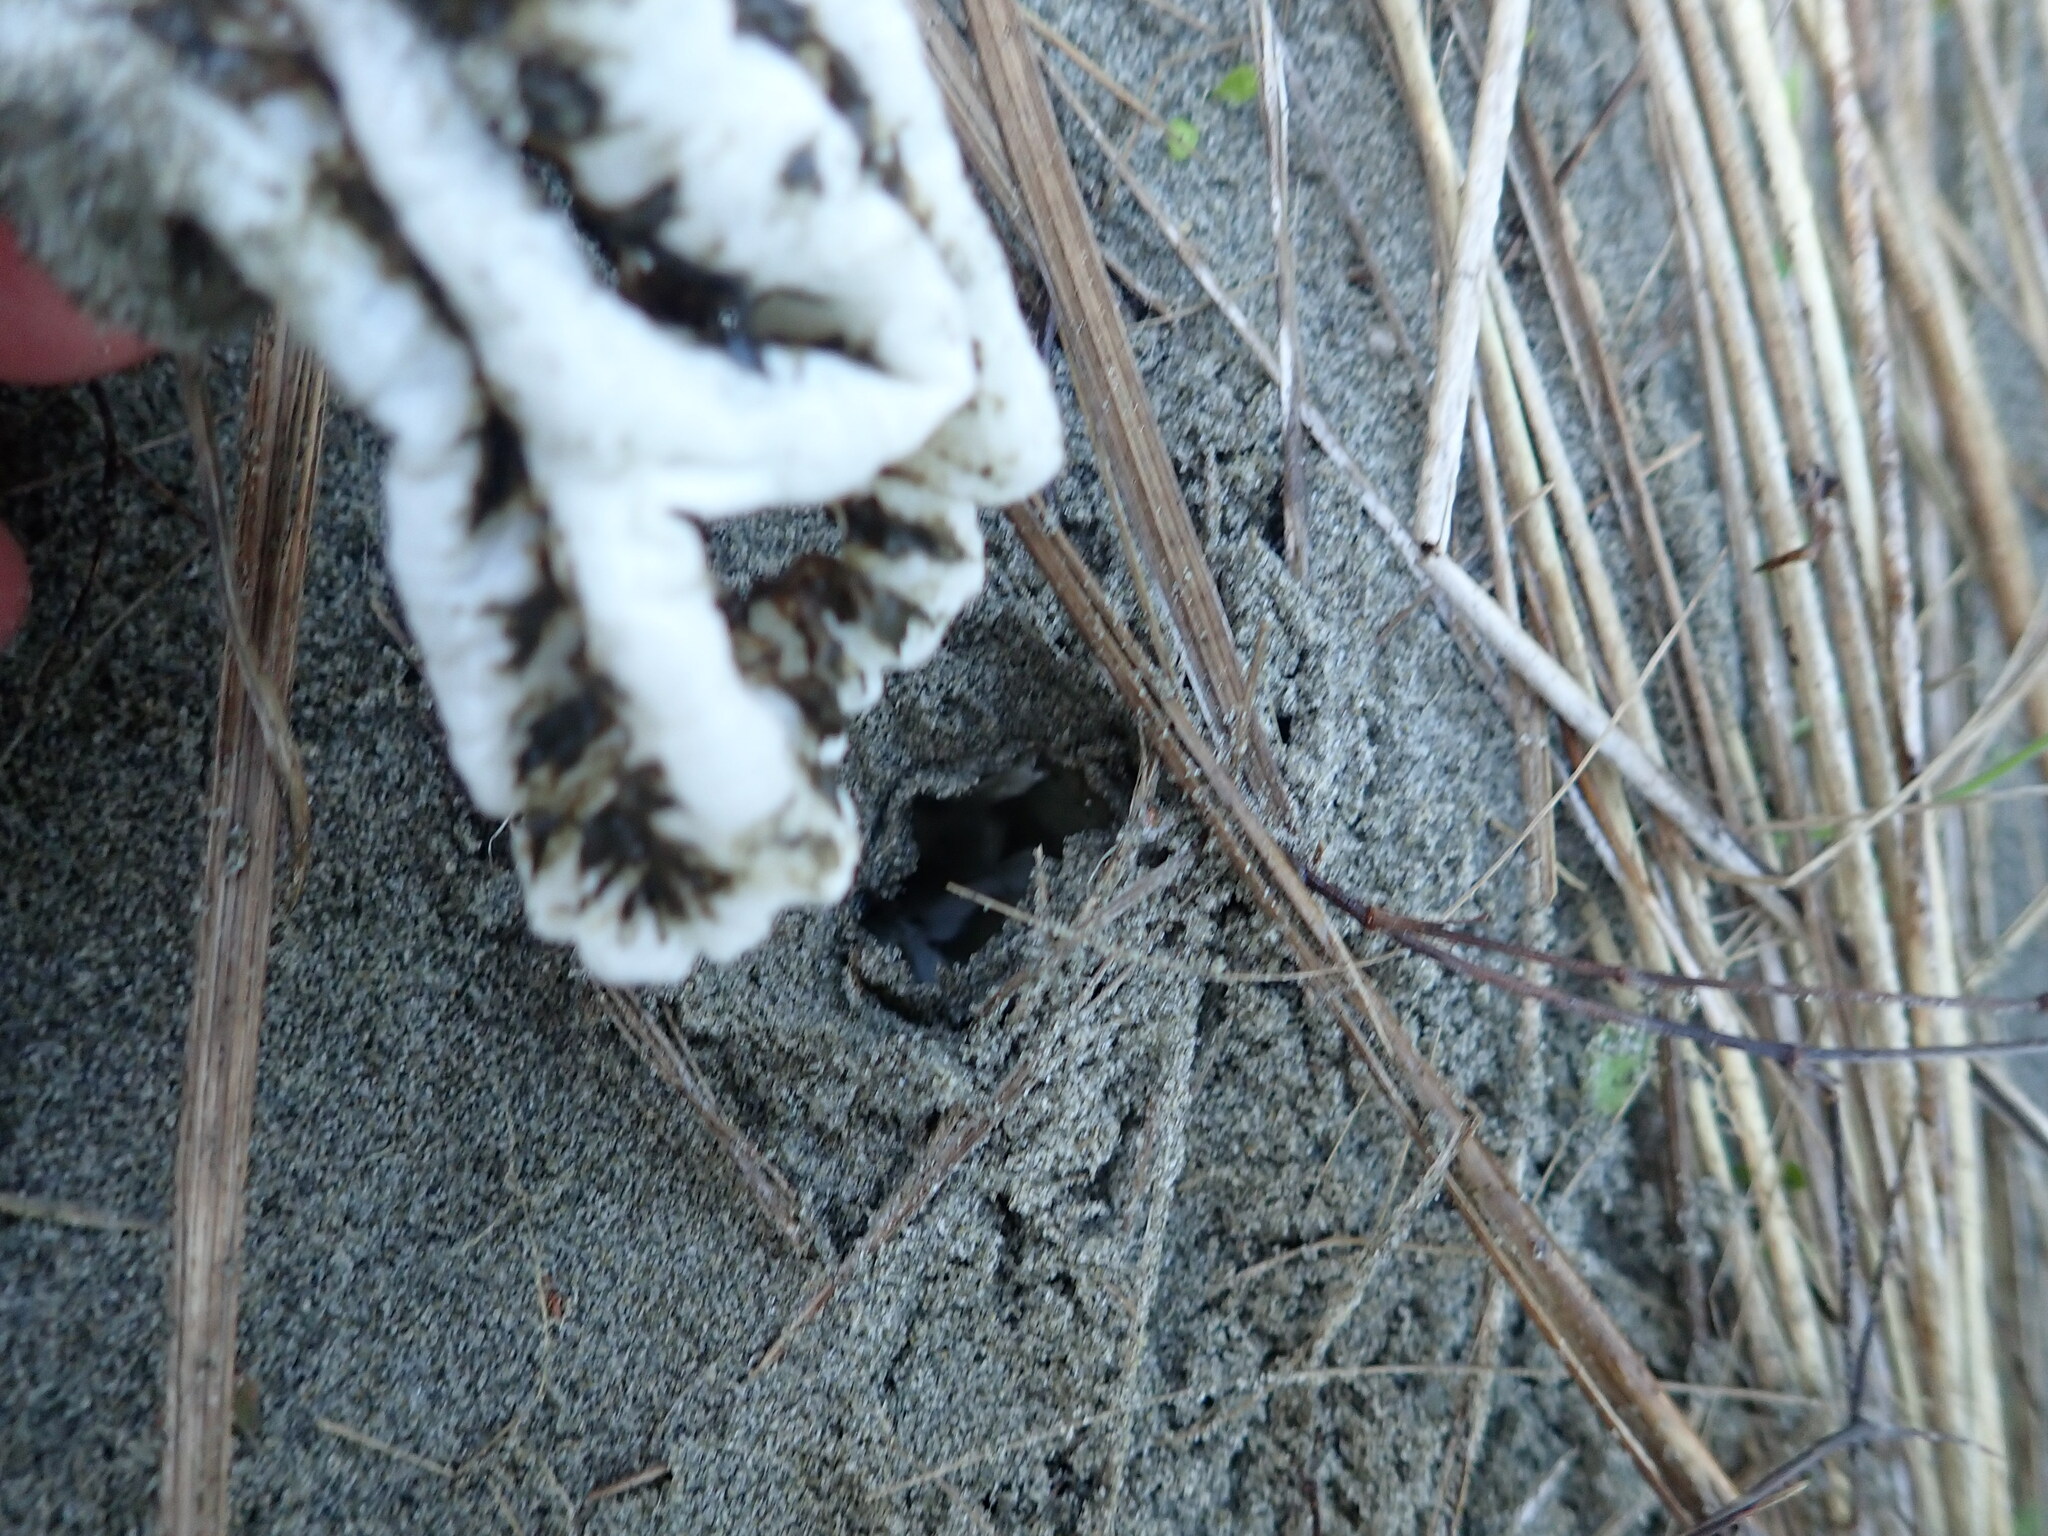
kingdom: Fungi
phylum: Basidiomycota
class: Agaricomycetes
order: Phallales
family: Phallaceae
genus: Ileodictyon
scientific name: Ileodictyon cibarium
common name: Basket fungus
